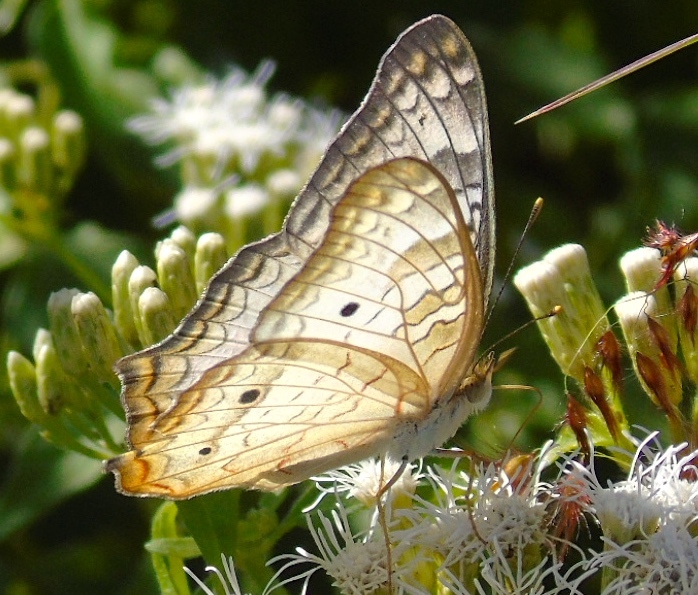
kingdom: Animalia
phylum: Arthropoda
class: Insecta
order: Lepidoptera
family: Nymphalidae
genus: Anartia
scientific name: Anartia jatrophae
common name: White peacock
